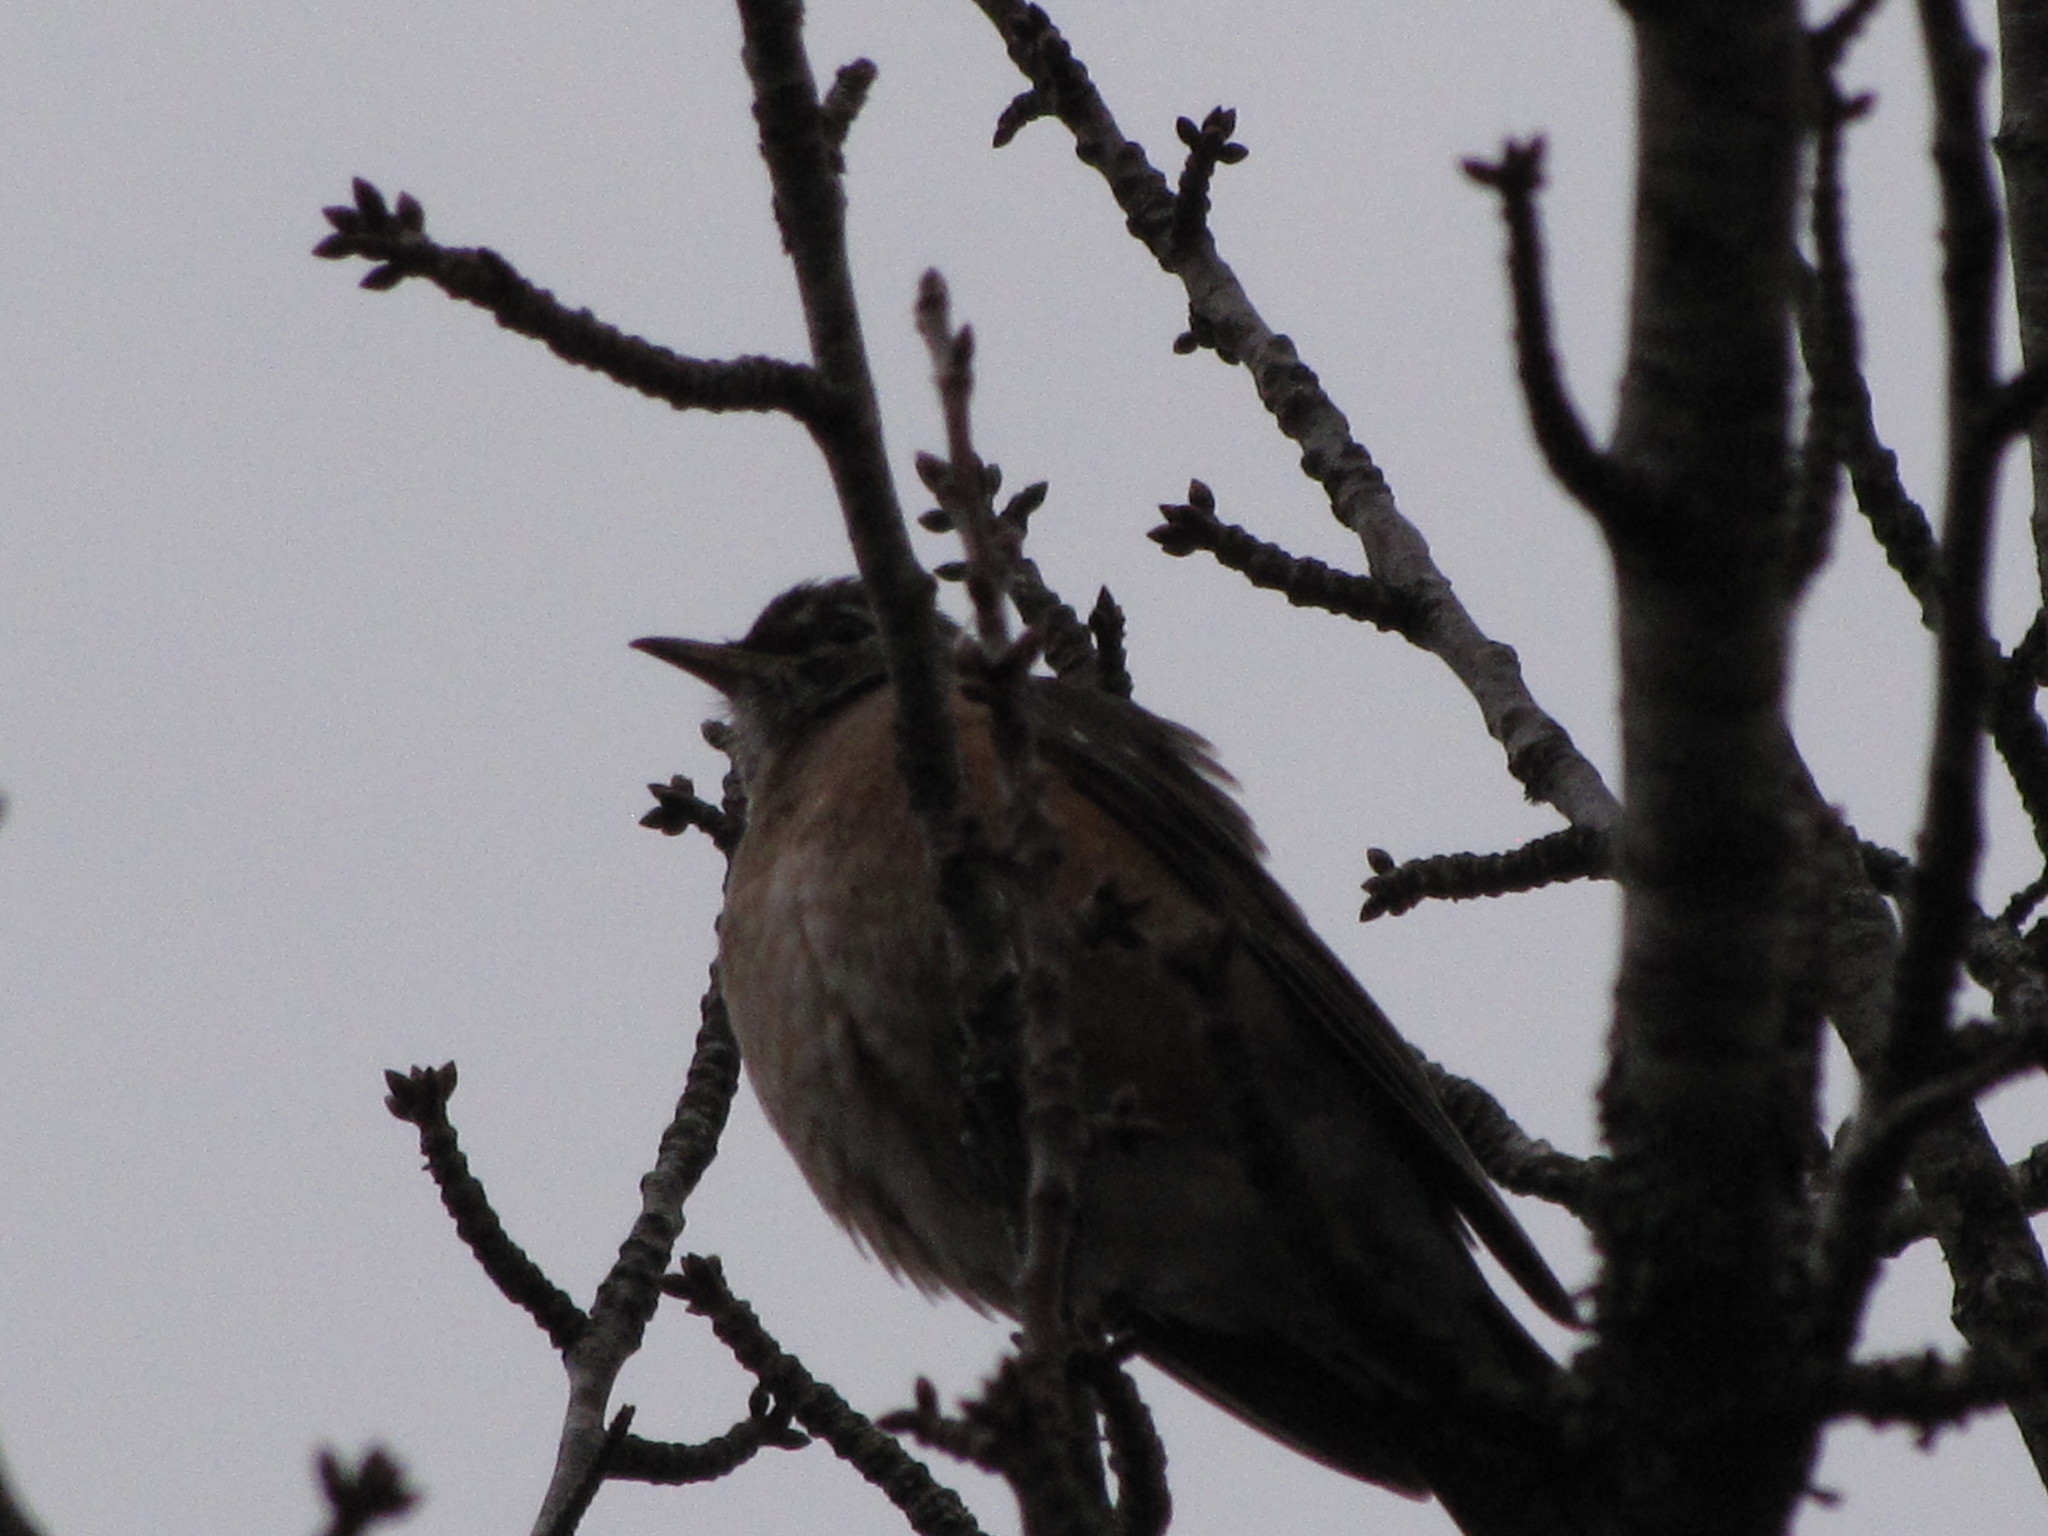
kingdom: Animalia
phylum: Chordata
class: Aves
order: Passeriformes
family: Turdidae
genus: Turdus
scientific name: Turdus migratorius
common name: American robin
